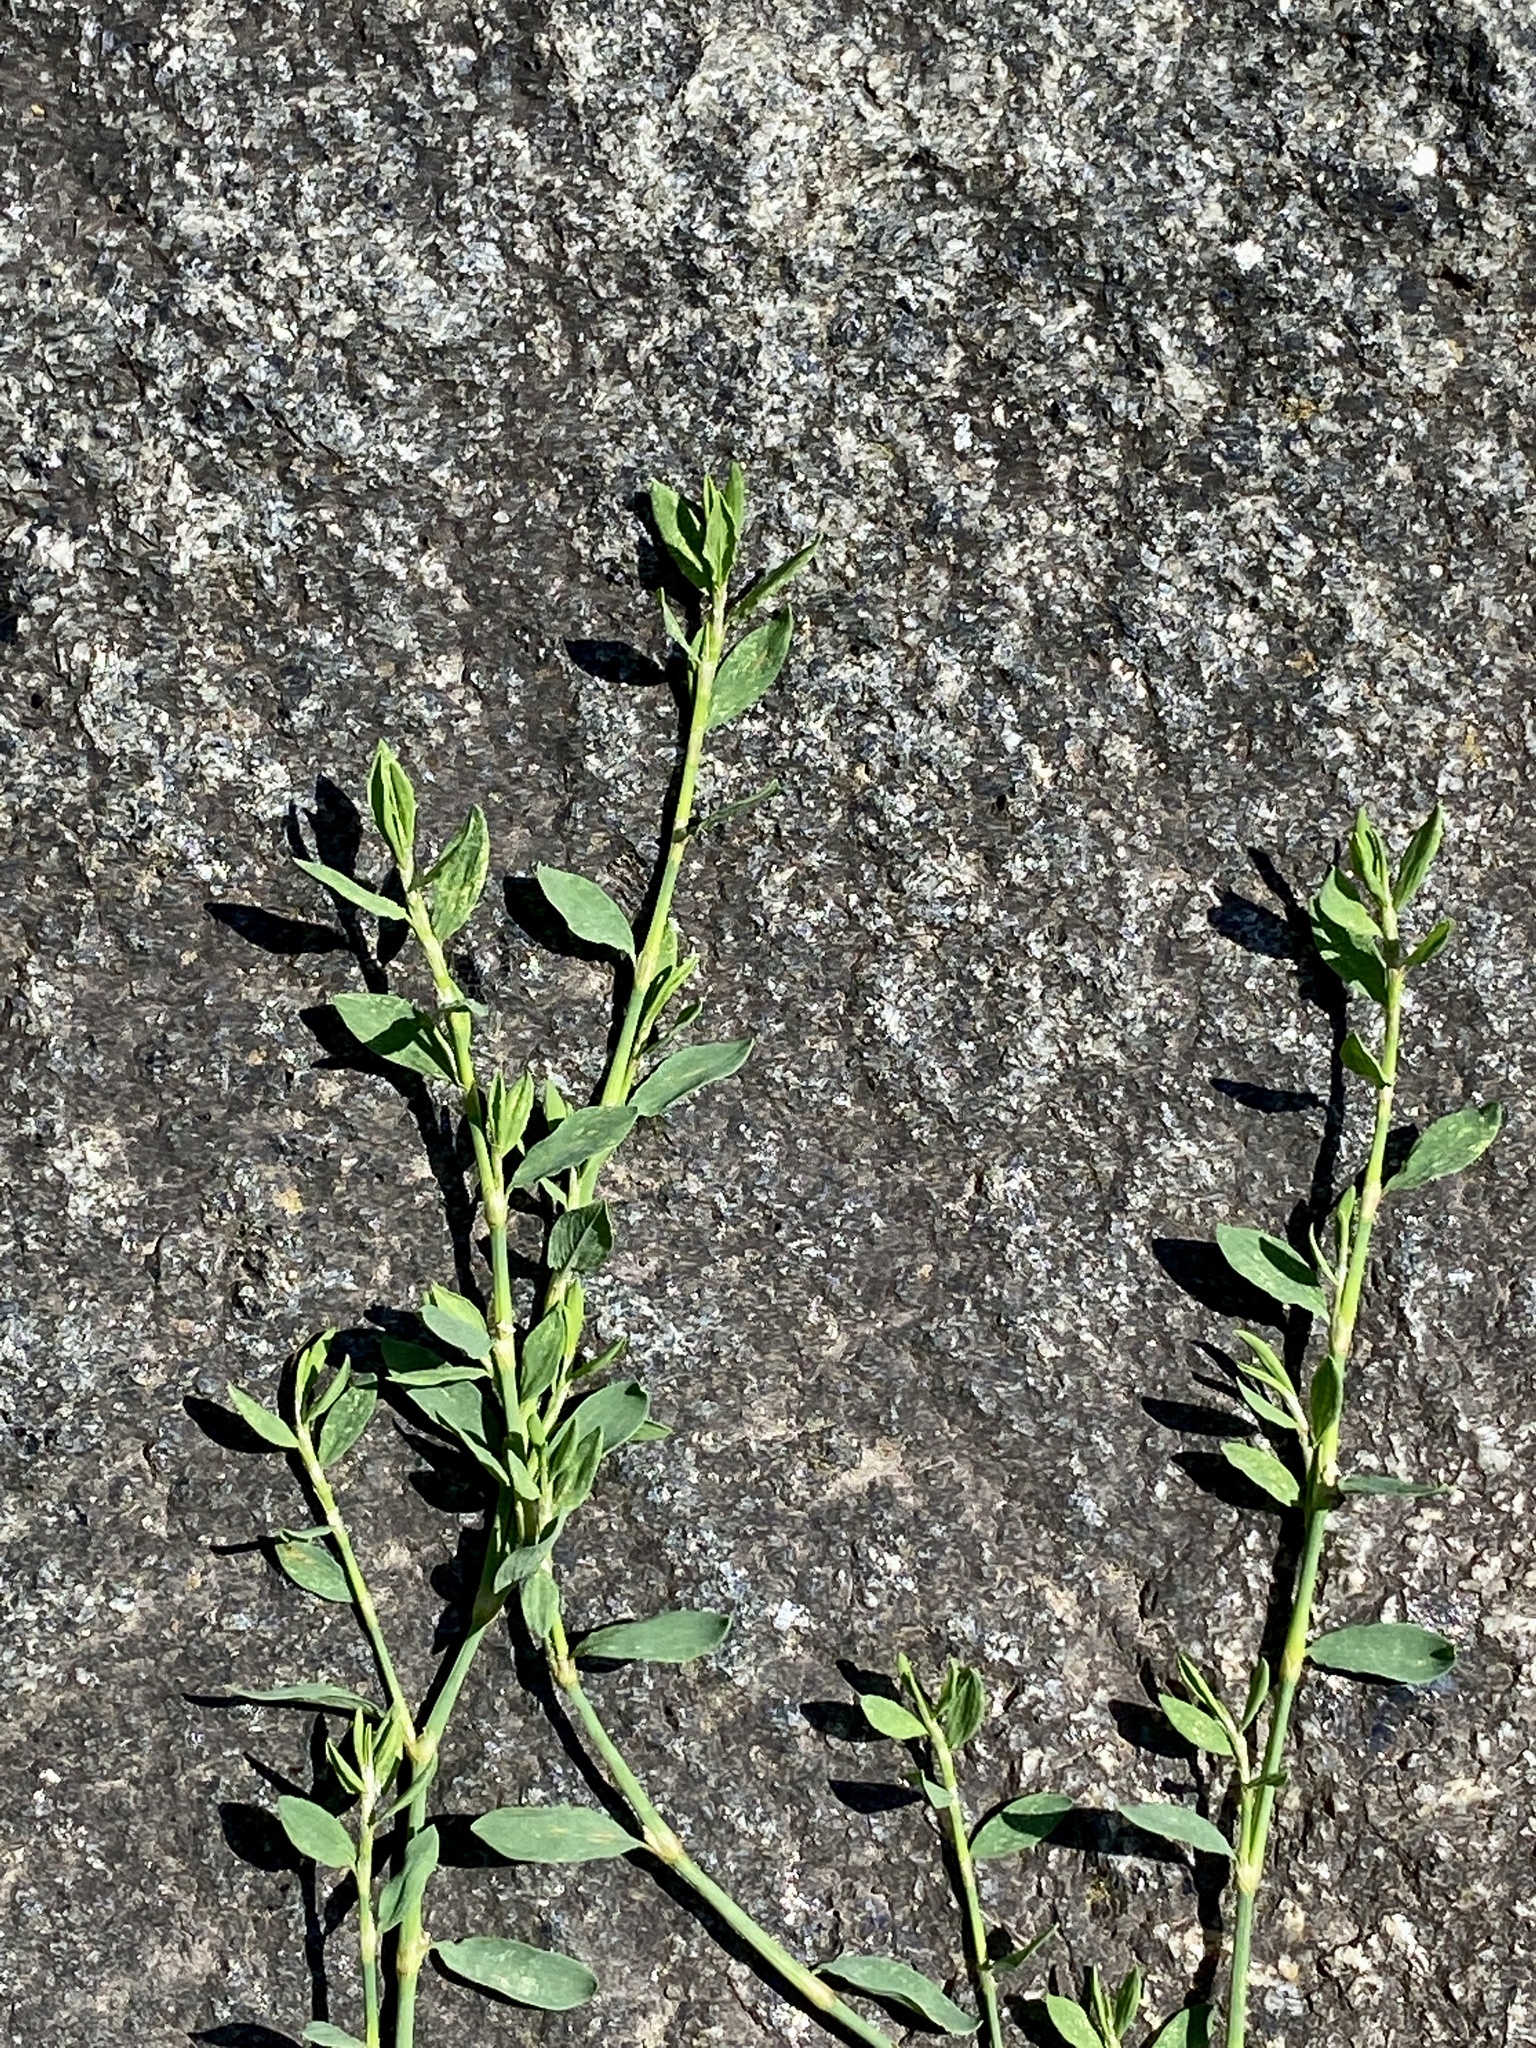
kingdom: Plantae
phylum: Tracheophyta
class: Magnoliopsida
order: Caryophyllales
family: Polygonaceae
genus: Polygonum
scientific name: Polygonum aviculare
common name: Prostrate knotweed
